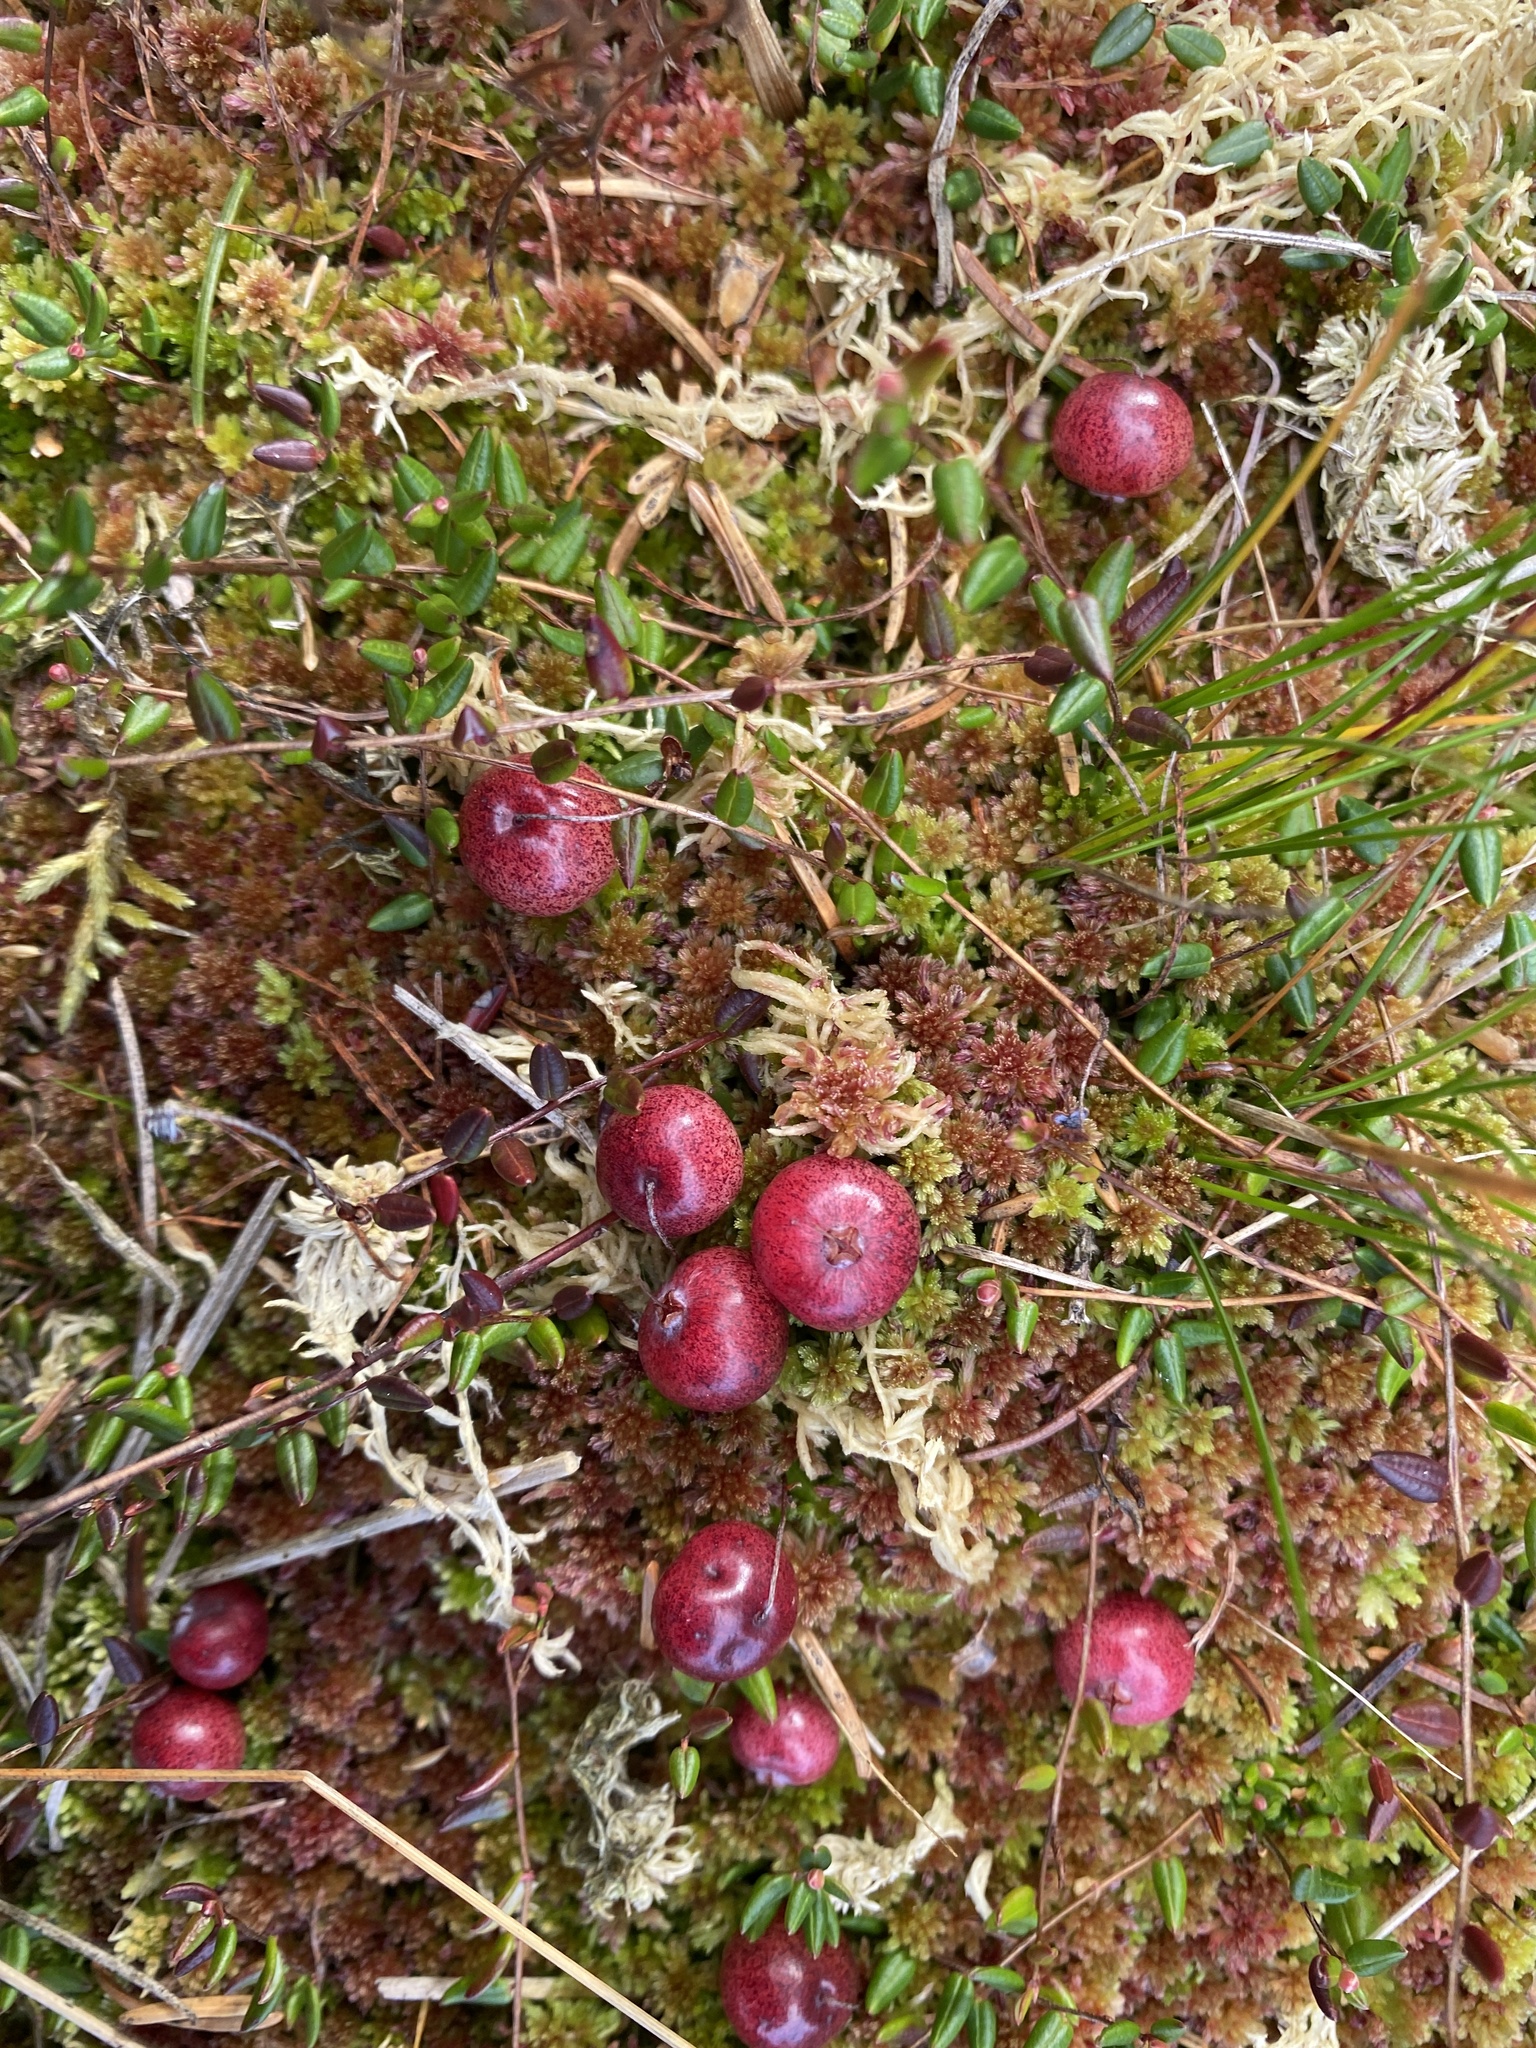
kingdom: Plantae
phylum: Tracheophyta
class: Magnoliopsida
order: Ericales
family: Ericaceae
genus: Vaccinium
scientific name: Vaccinium oxycoccos
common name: Cranberry
